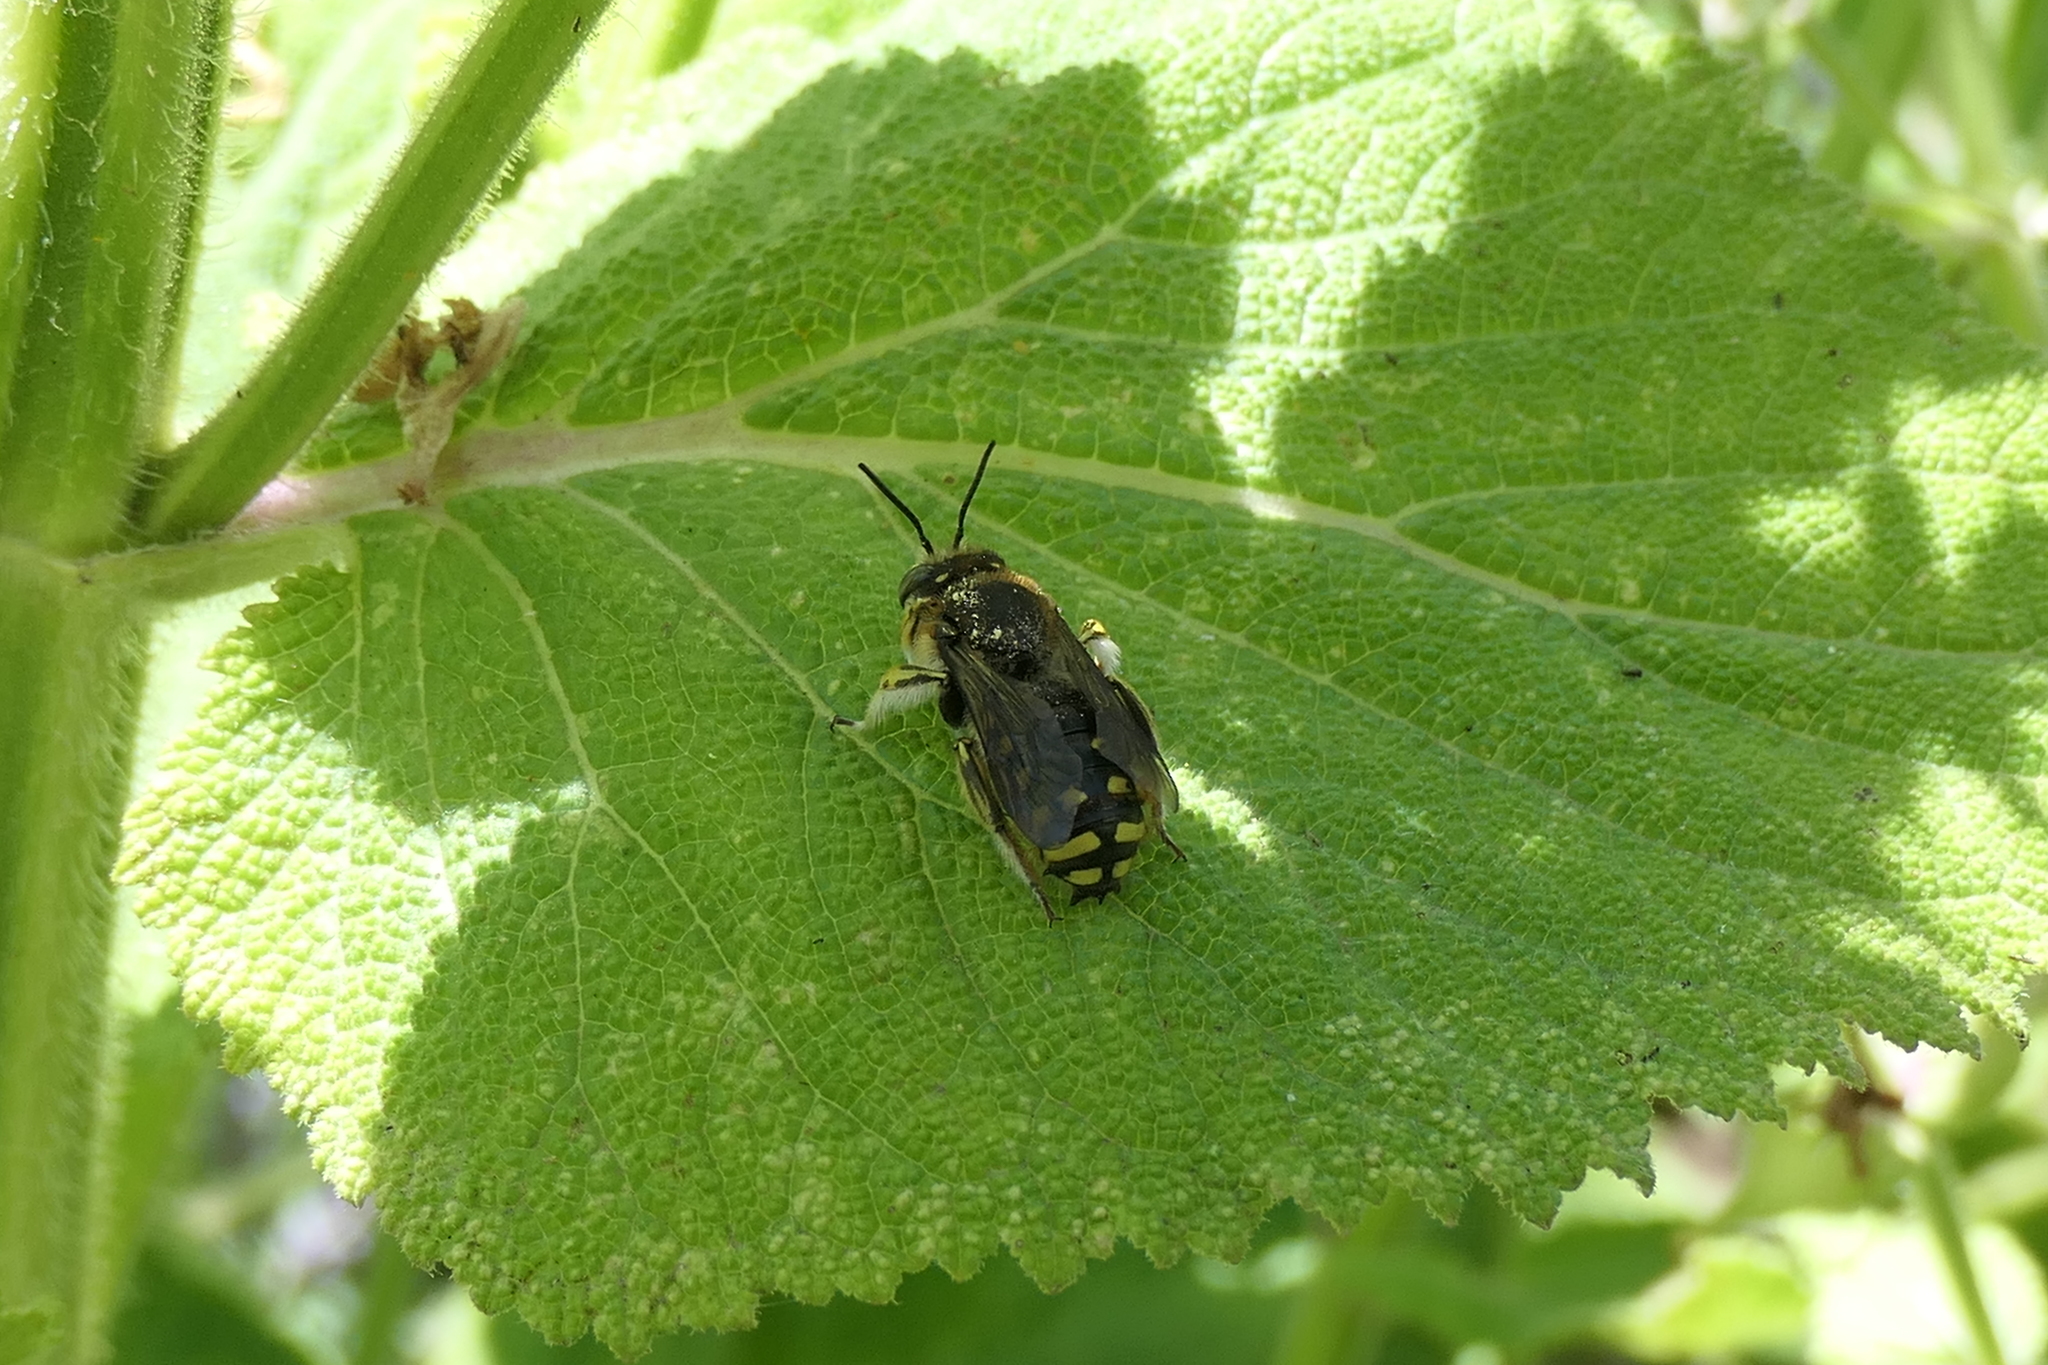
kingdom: Animalia
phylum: Arthropoda
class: Insecta
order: Hymenoptera
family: Megachilidae
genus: Anthidium
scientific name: Anthidium manicatum
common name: Wool carder bee
